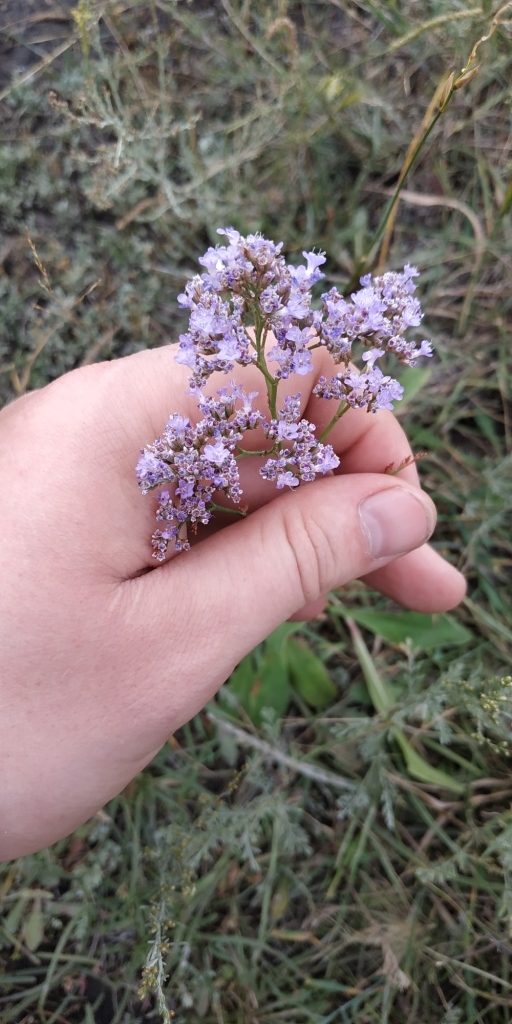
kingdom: Plantae
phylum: Tracheophyta
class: Magnoliopsida
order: Caryophyllales
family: Plumbaginaceae
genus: Limonium
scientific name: Limonium gmelini
